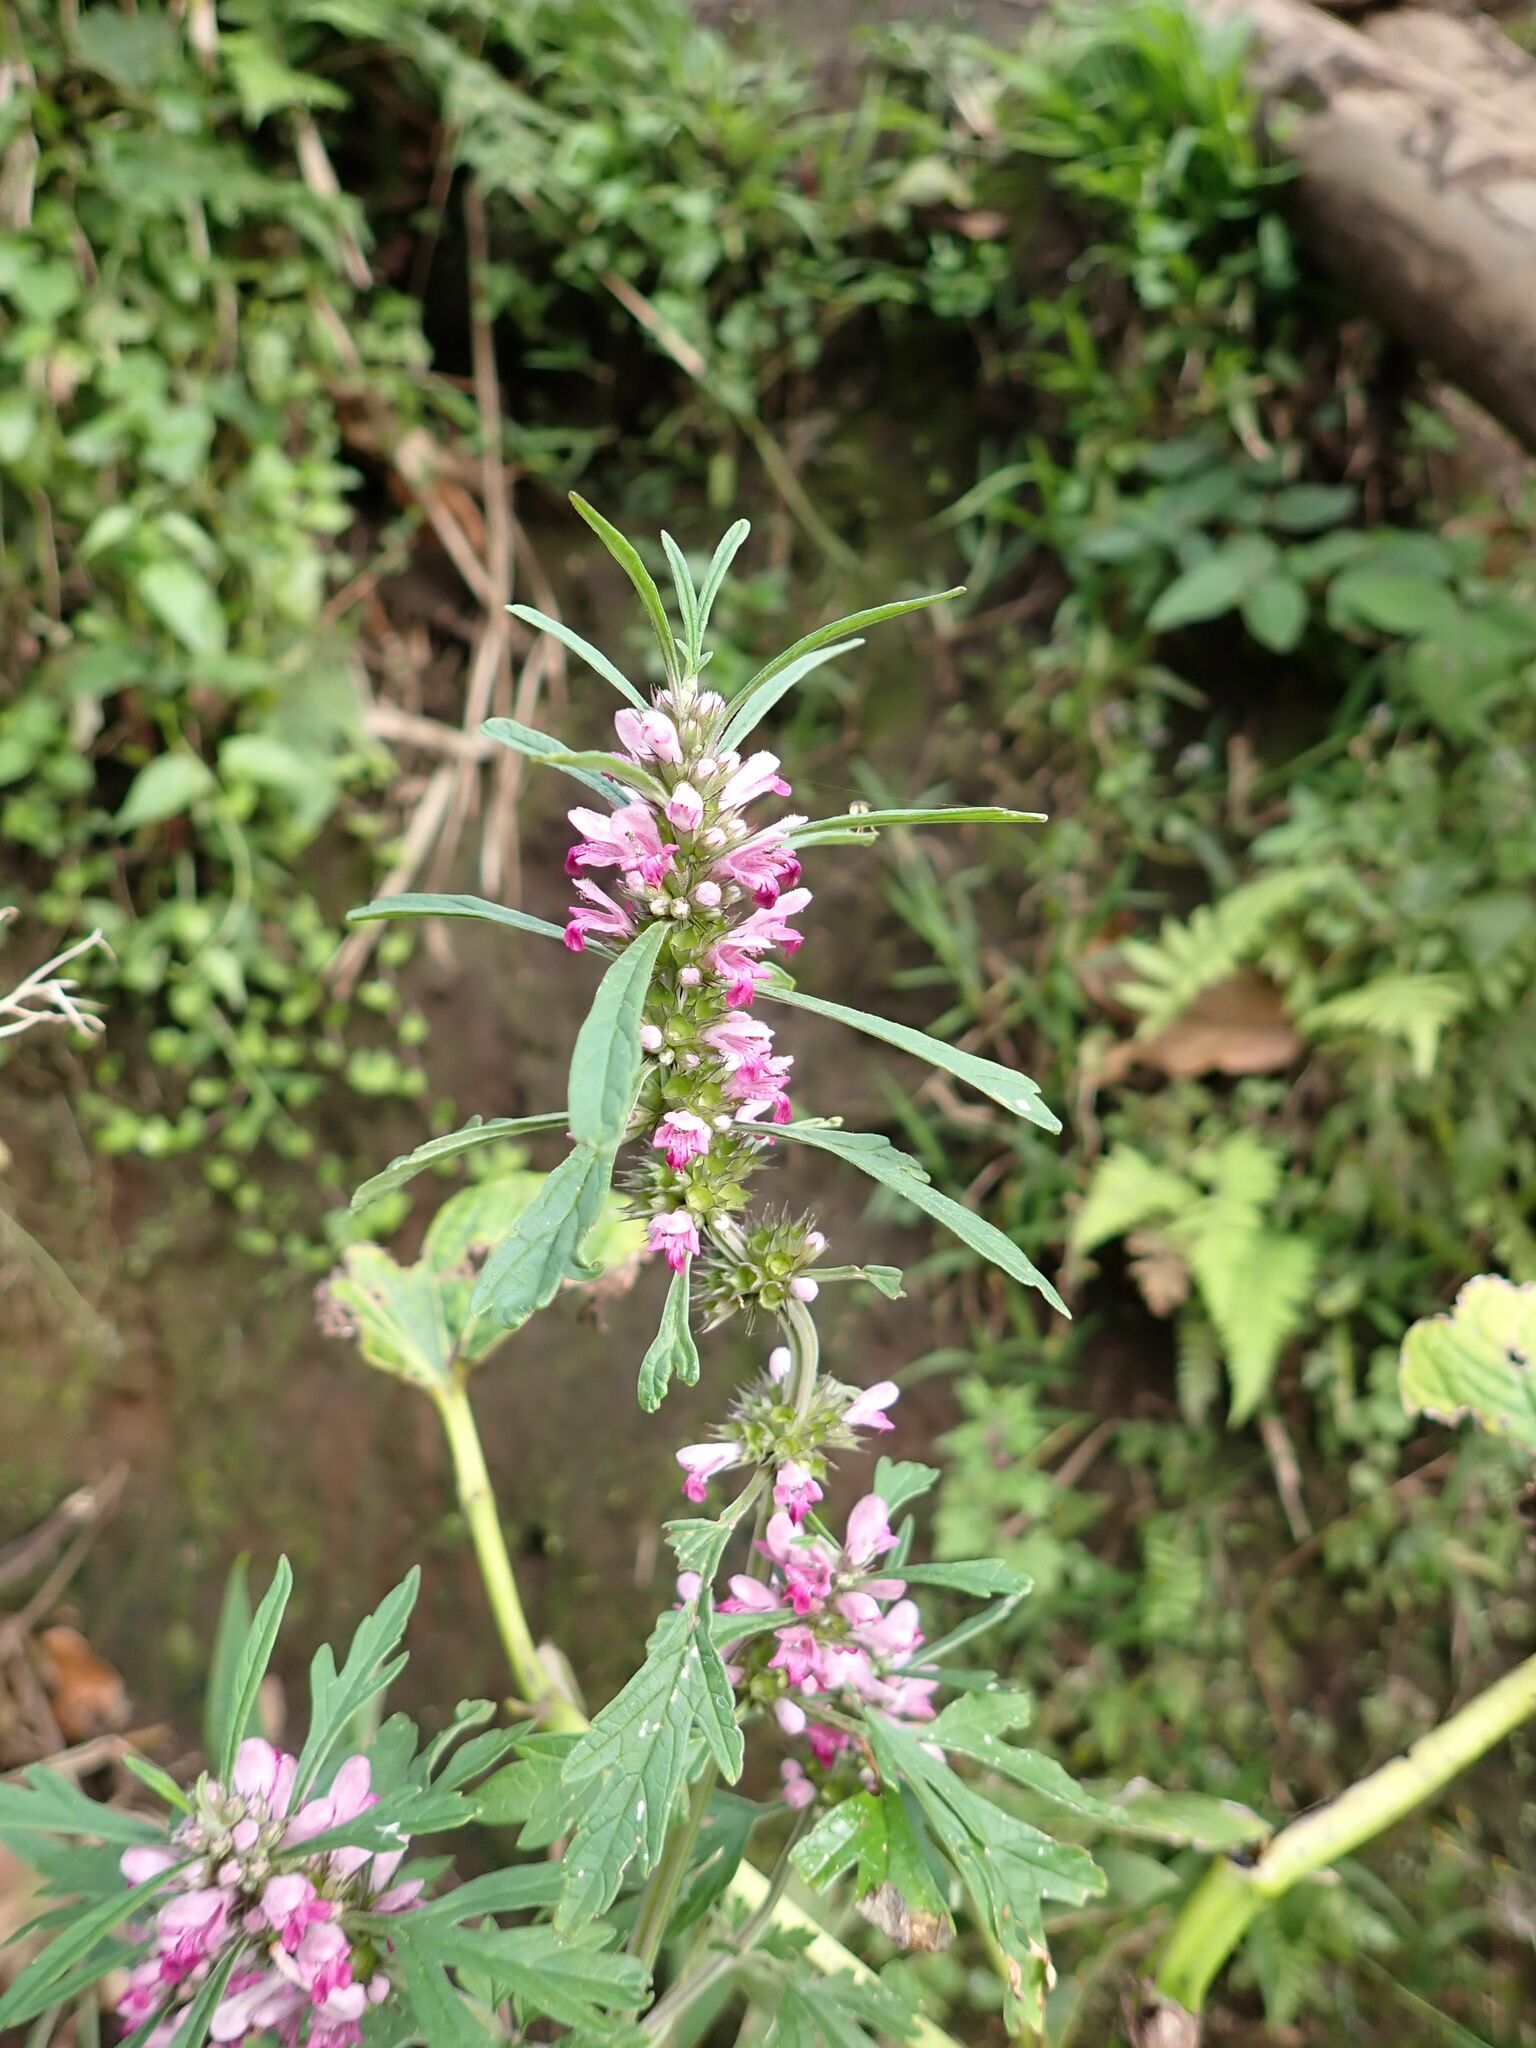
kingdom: Plantae
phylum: Tracheophyta
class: Magnoliopsida
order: Lamiales
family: Lamiaceae
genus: Leonurus
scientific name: Leonurus japonicus
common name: Honeyweed
